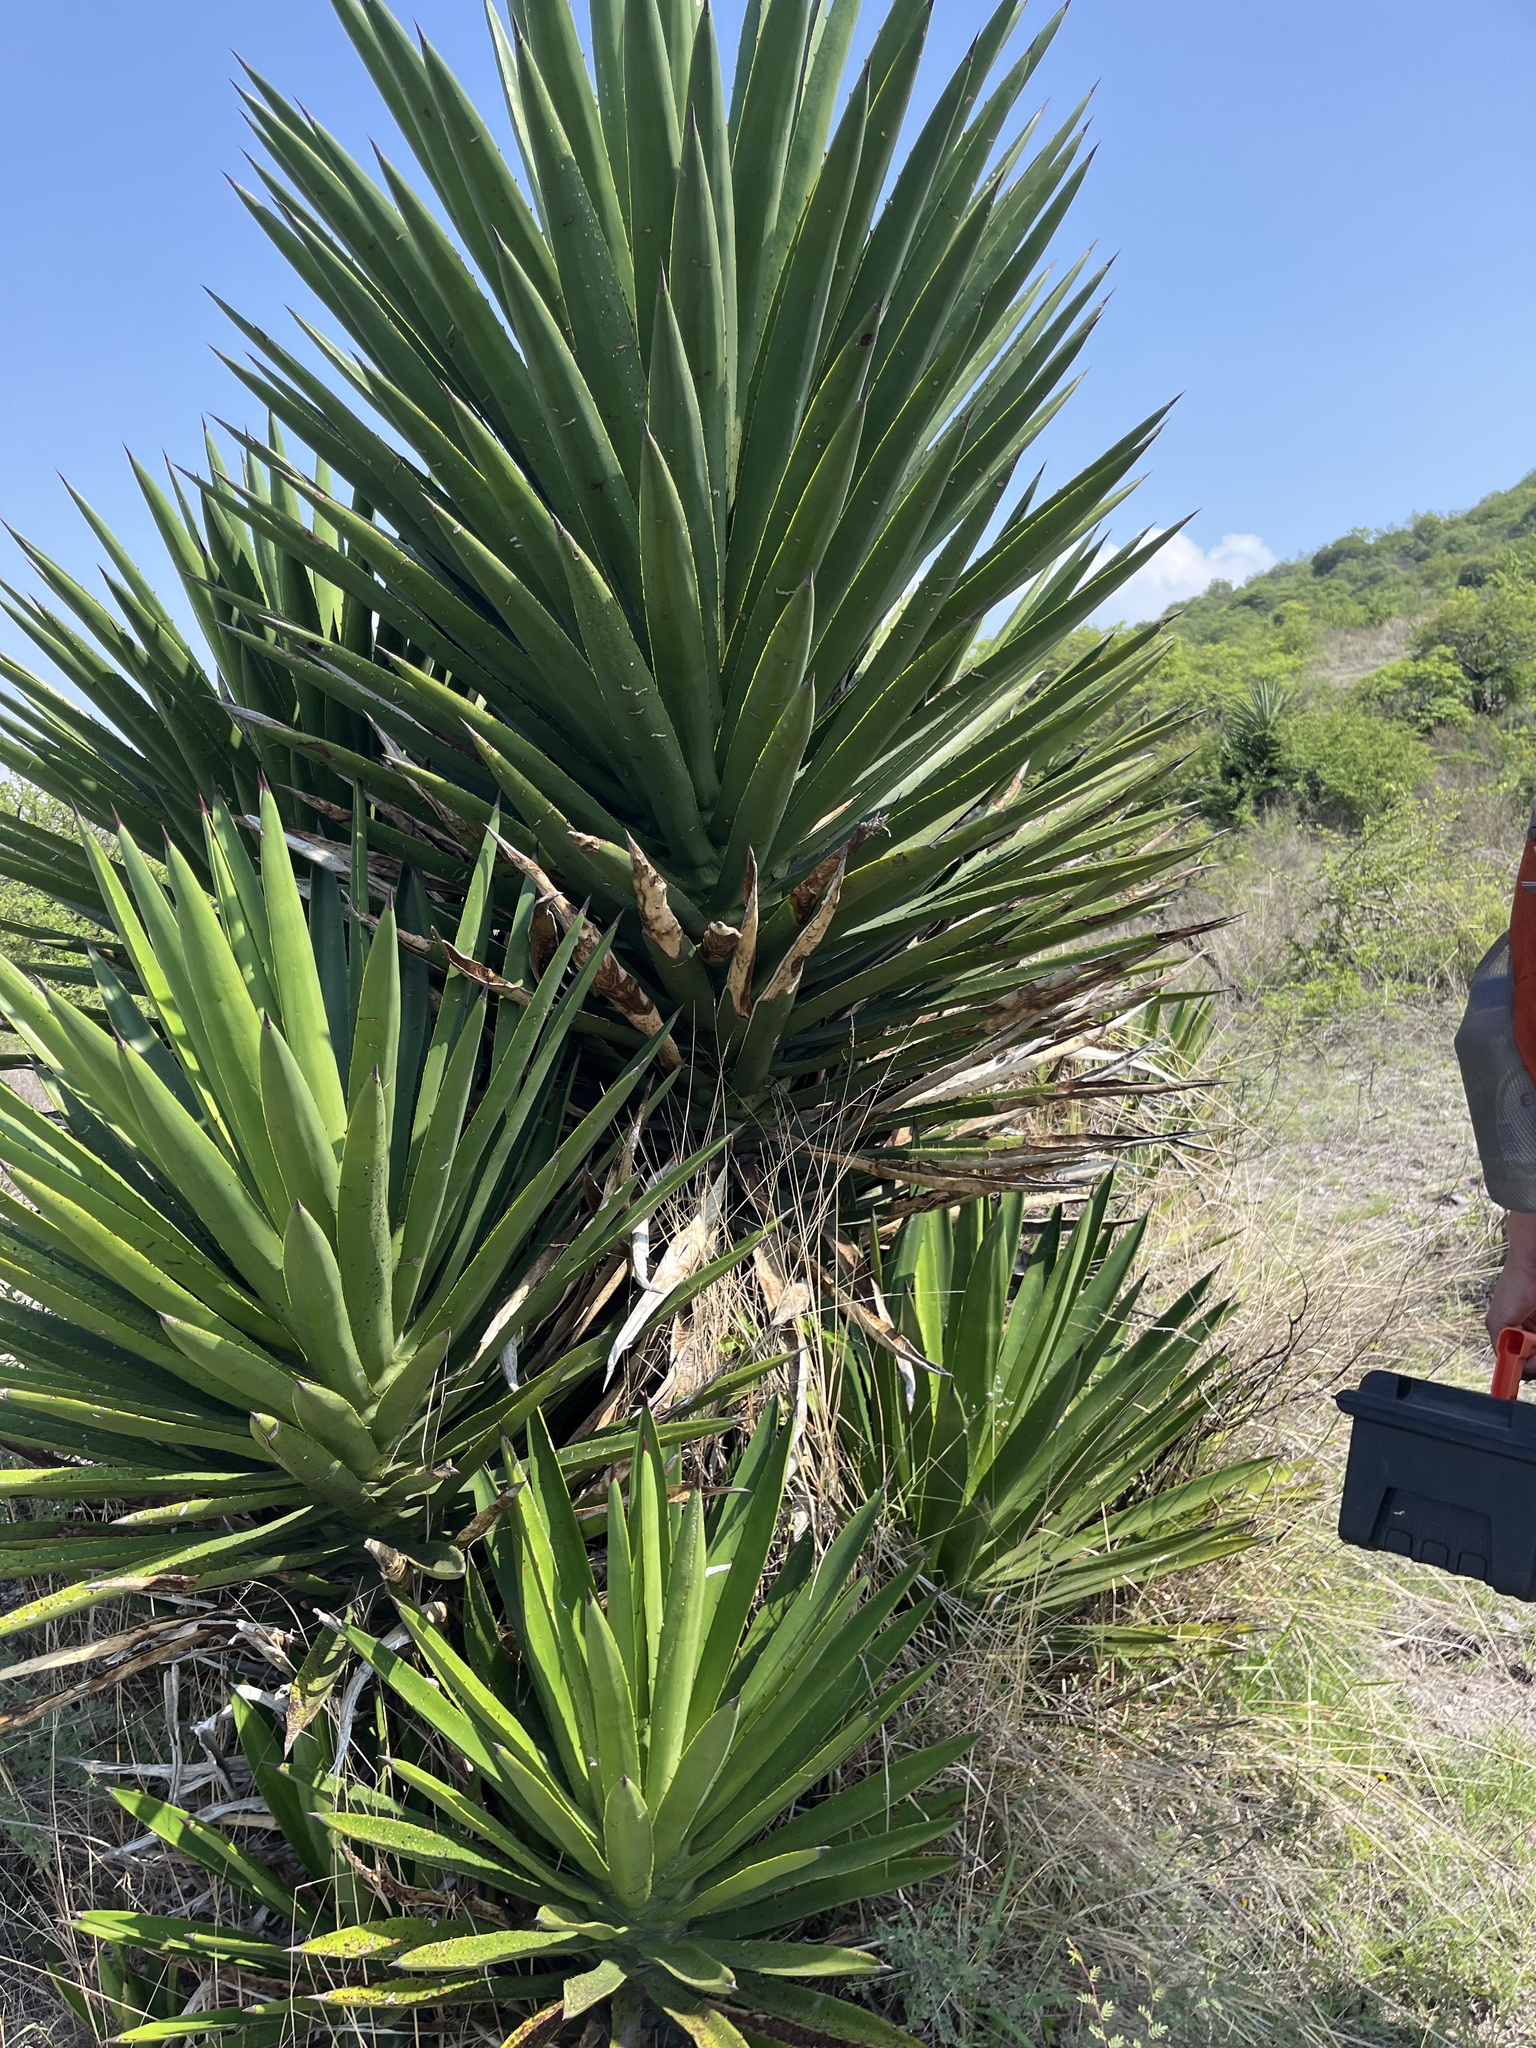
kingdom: Plantae
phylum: Tracheophyta
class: Liliopsida
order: Asparagales
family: Asparagaceae
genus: Agave
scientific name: Agave karwinskii
